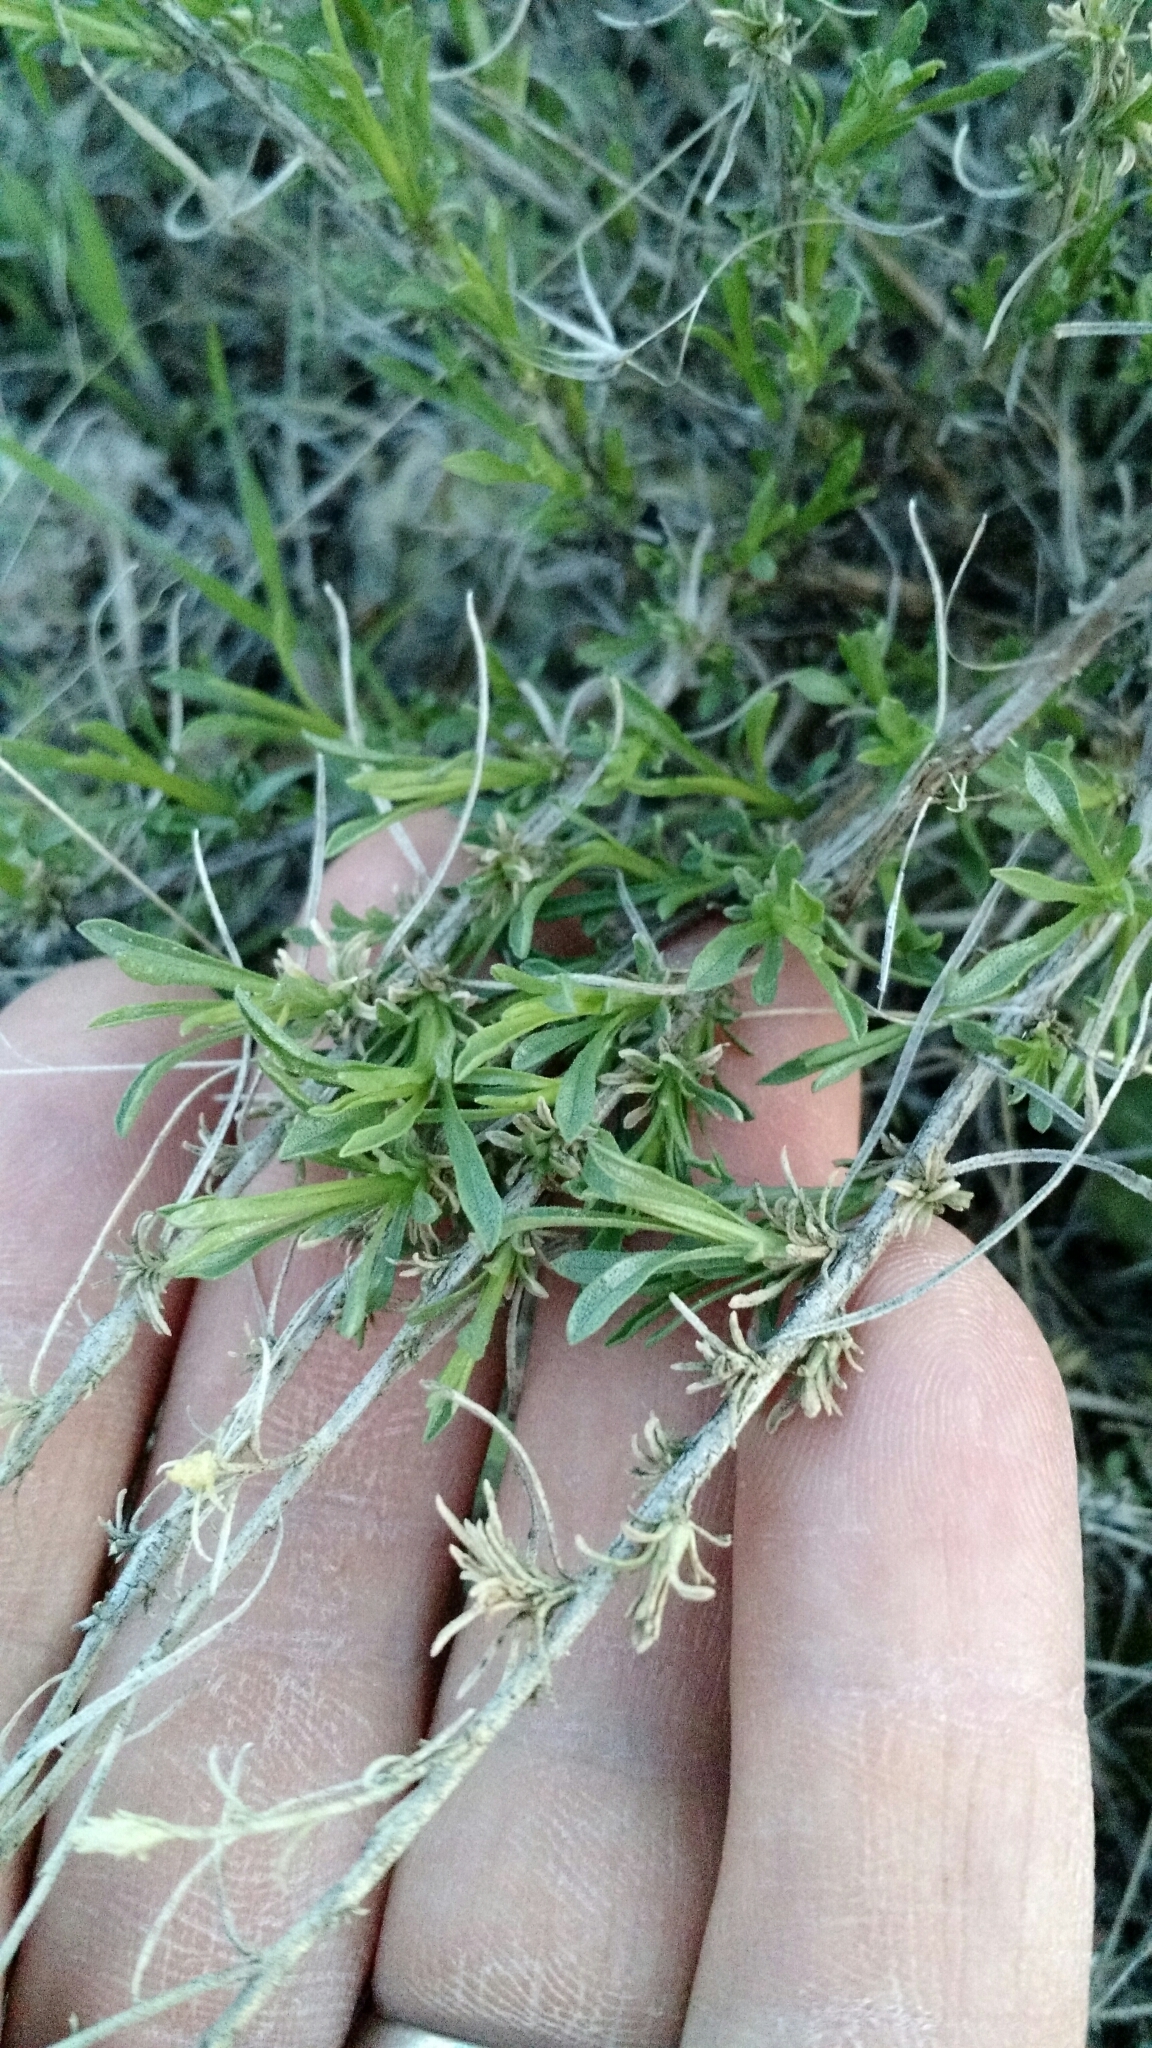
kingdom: Plantae
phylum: Tracheophyta
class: Magnoliopsida
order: Asterales
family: Asteraceae
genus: Gutierrezia
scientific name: Gutierrezia sarothrae
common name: Broom snakeweed
